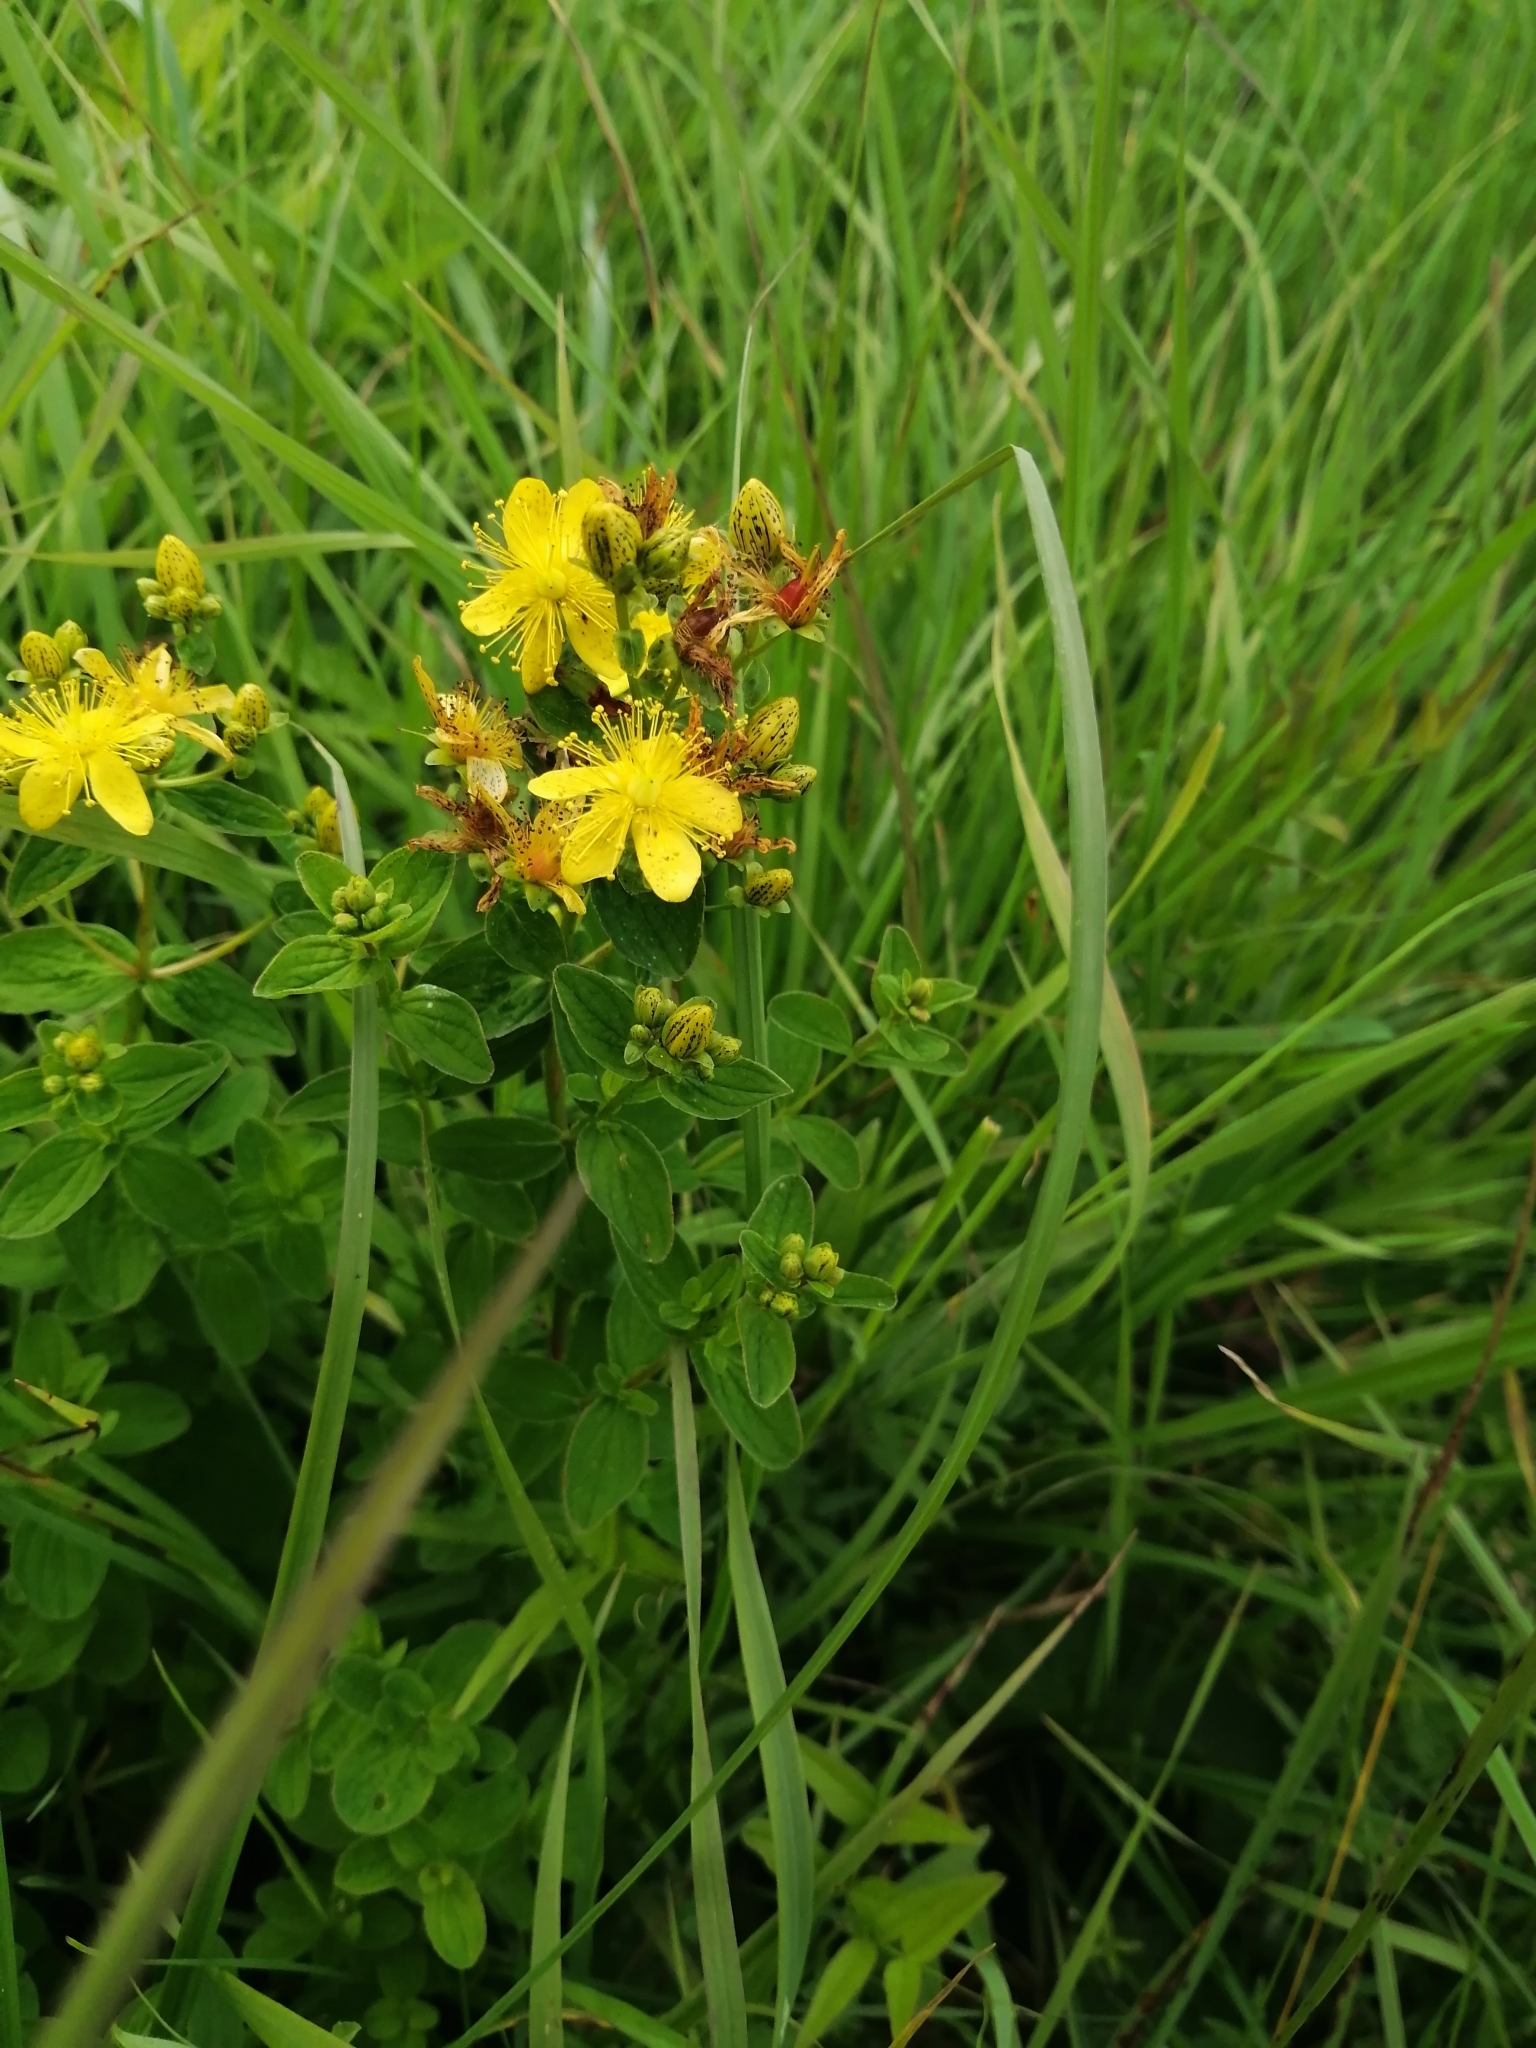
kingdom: Plantae
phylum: Tracheophyta
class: Magnoliopsida
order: Malpighiales
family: Hypericaceae
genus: Hypericum
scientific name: Hypericum maculatum
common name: Imperforate st. john's-wort
